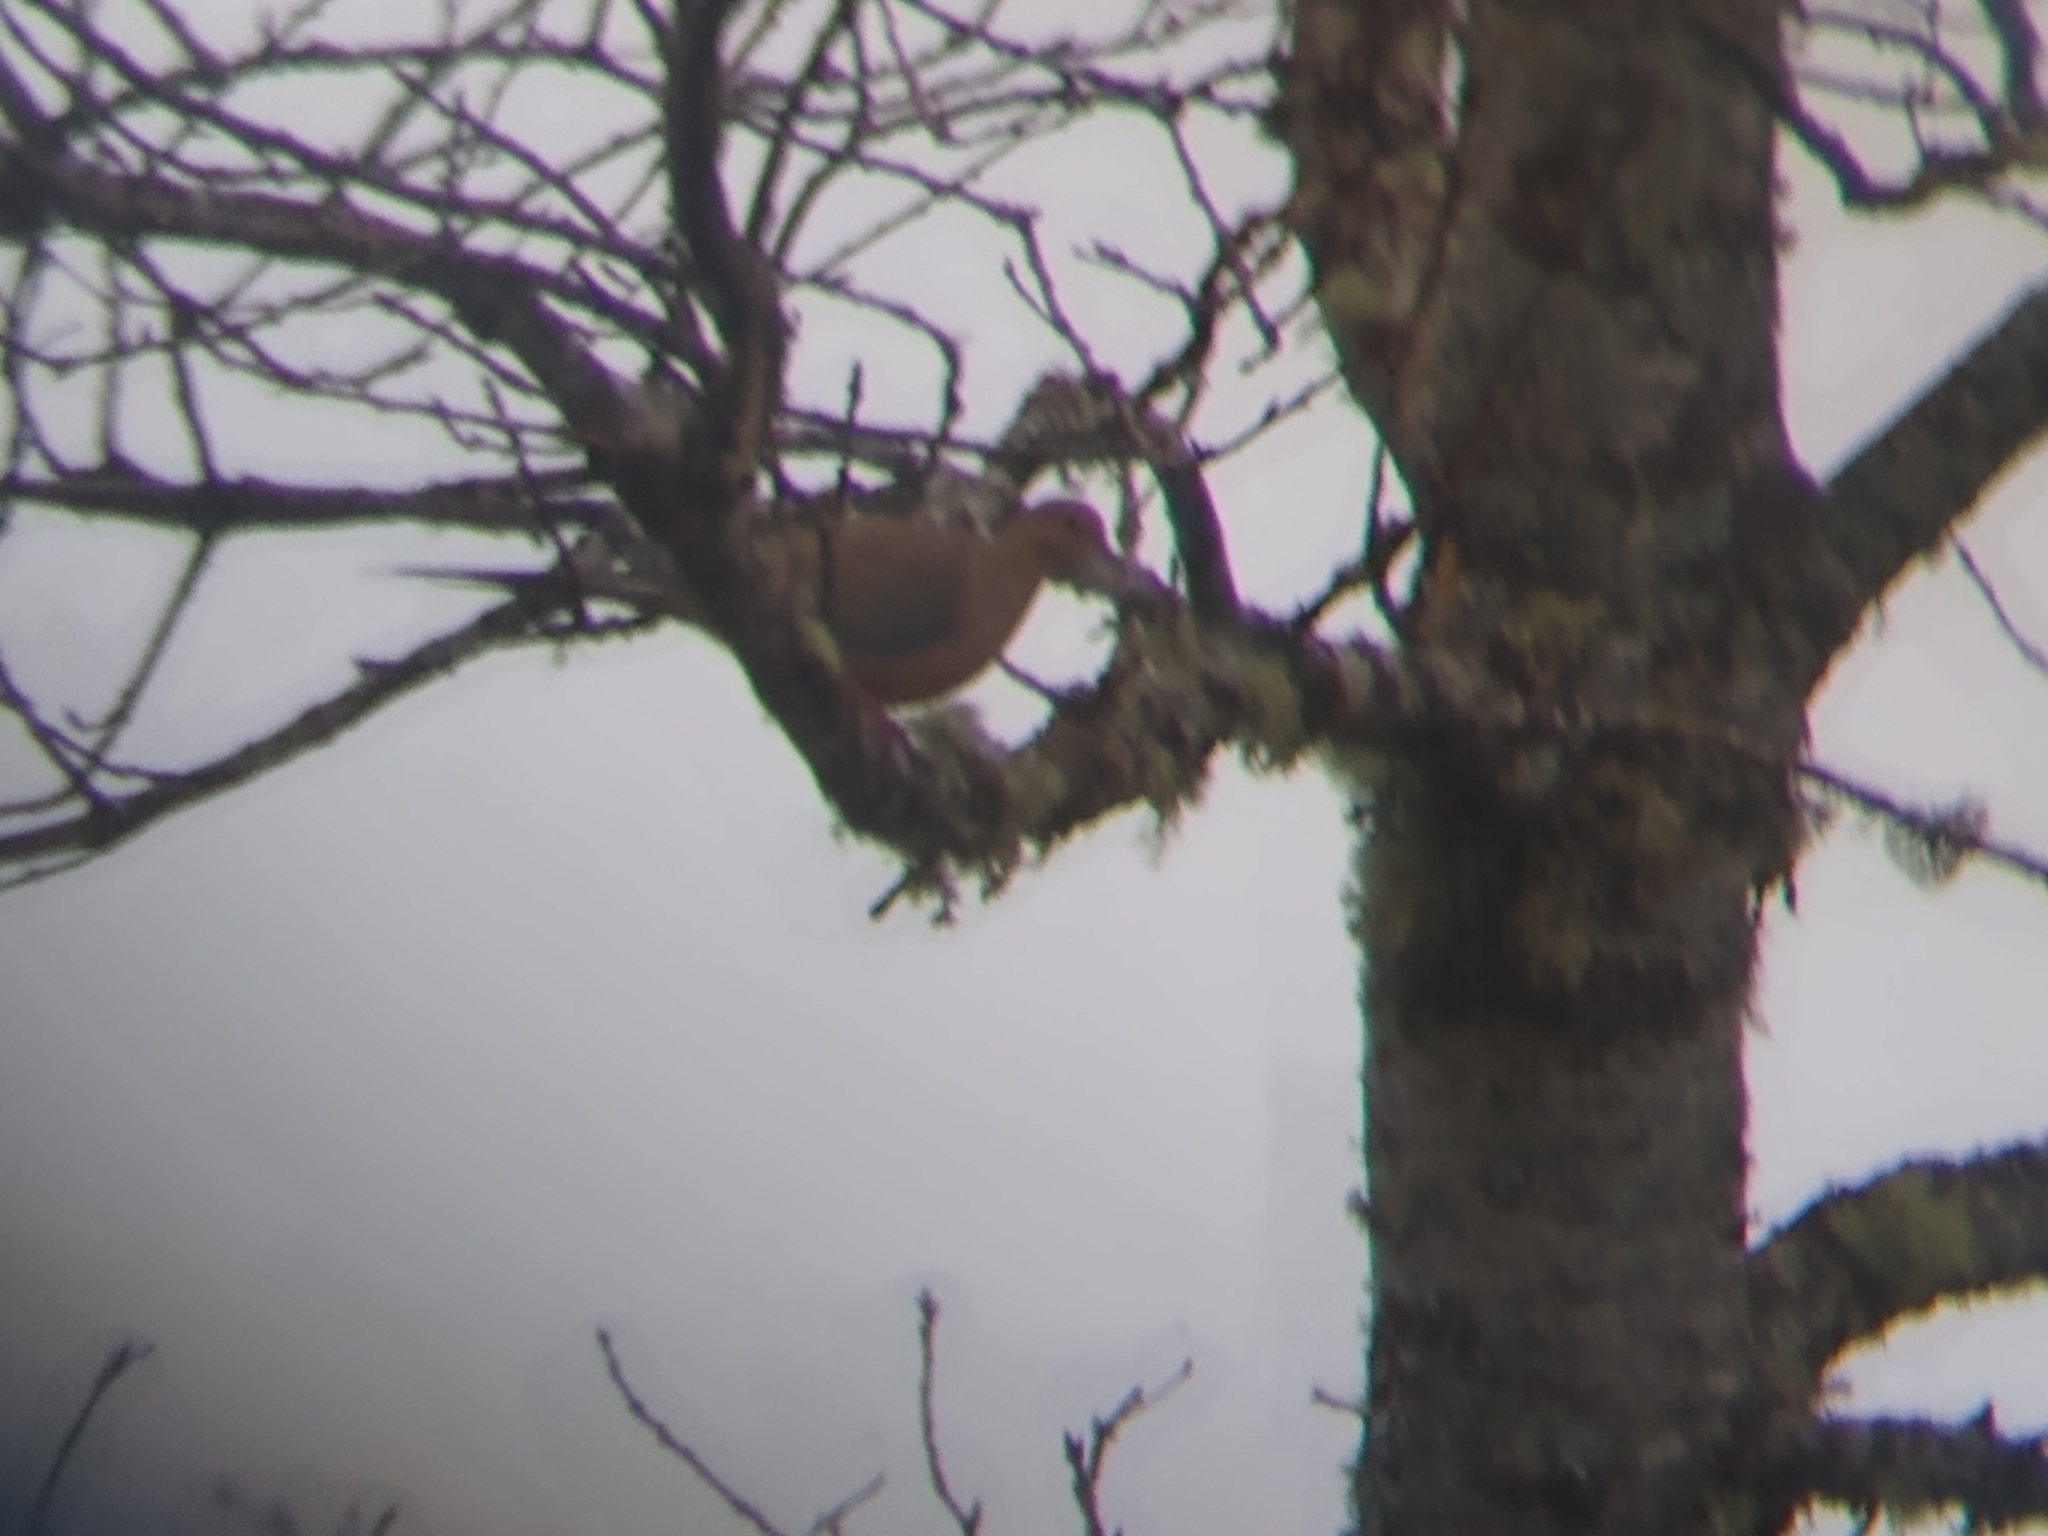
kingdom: Animalia
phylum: Chordata
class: Aves
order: Columbiformes
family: Columbidae
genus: Zenaida
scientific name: Zenaida macroura
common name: Mourning dove
